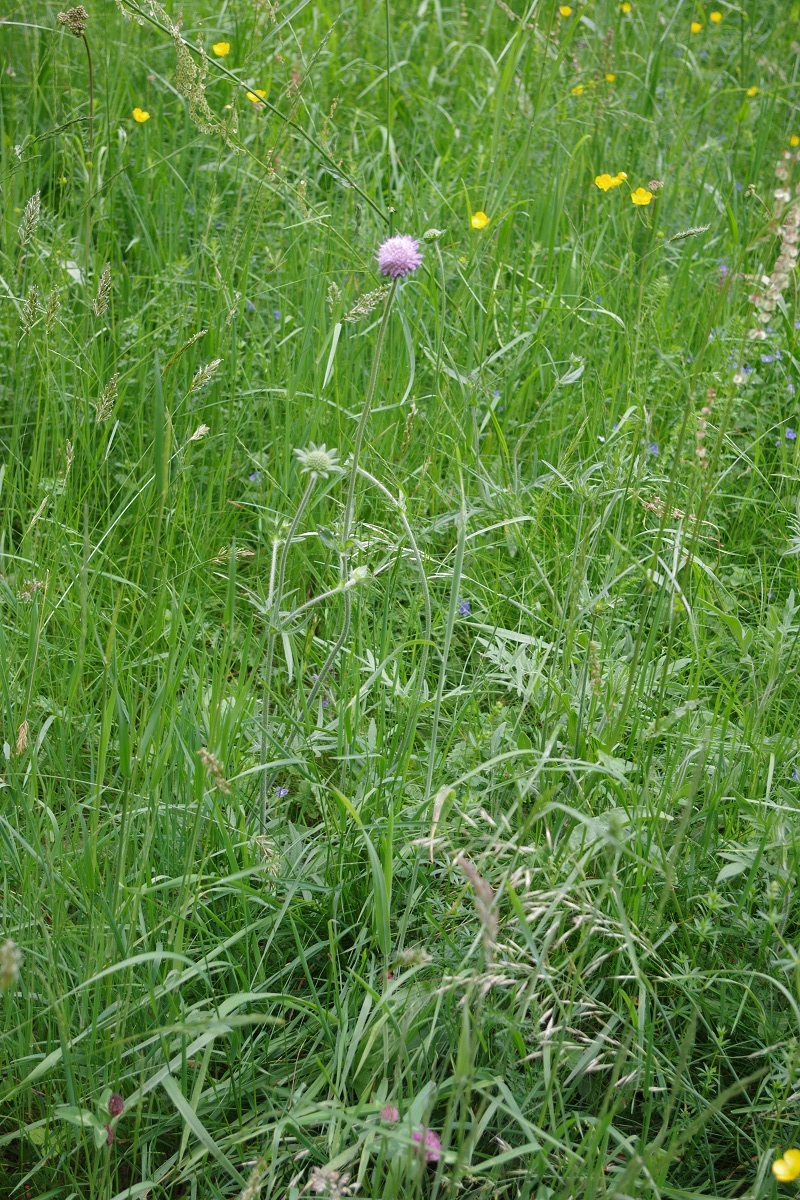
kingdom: Plantae
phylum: Tracheophyta
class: Magnoliopsida
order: Dipsacales
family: Caprifoliaceae
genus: Knautia
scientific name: Knautia arvensis
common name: Field scabiosa
